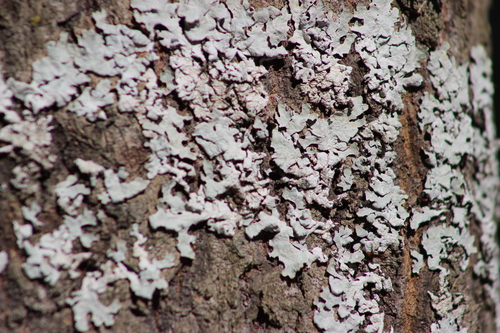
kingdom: Fungi
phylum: Ascomycota
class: Lecanoromycetes
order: Lecanorales
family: Parmeliaceae
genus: Parmelia
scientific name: Parmelia sulcata
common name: Netted shield lichen
